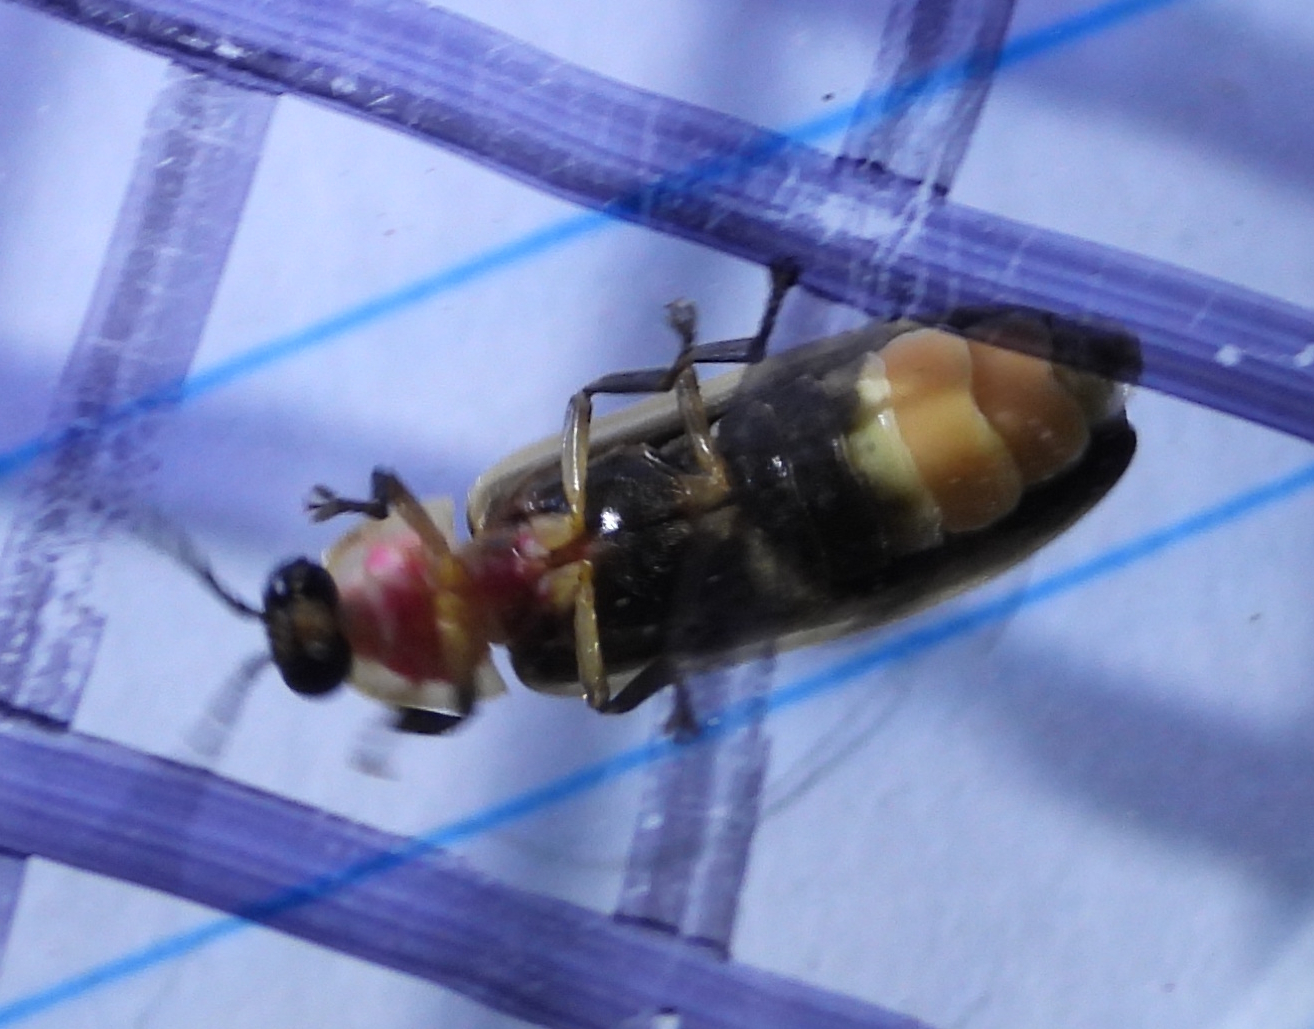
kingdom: Animalia
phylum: Arthropoda
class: Insecta
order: Coleoptera
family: Lampyridae
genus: Photinus
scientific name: Photinus pyralis
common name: Big dipper firefly
